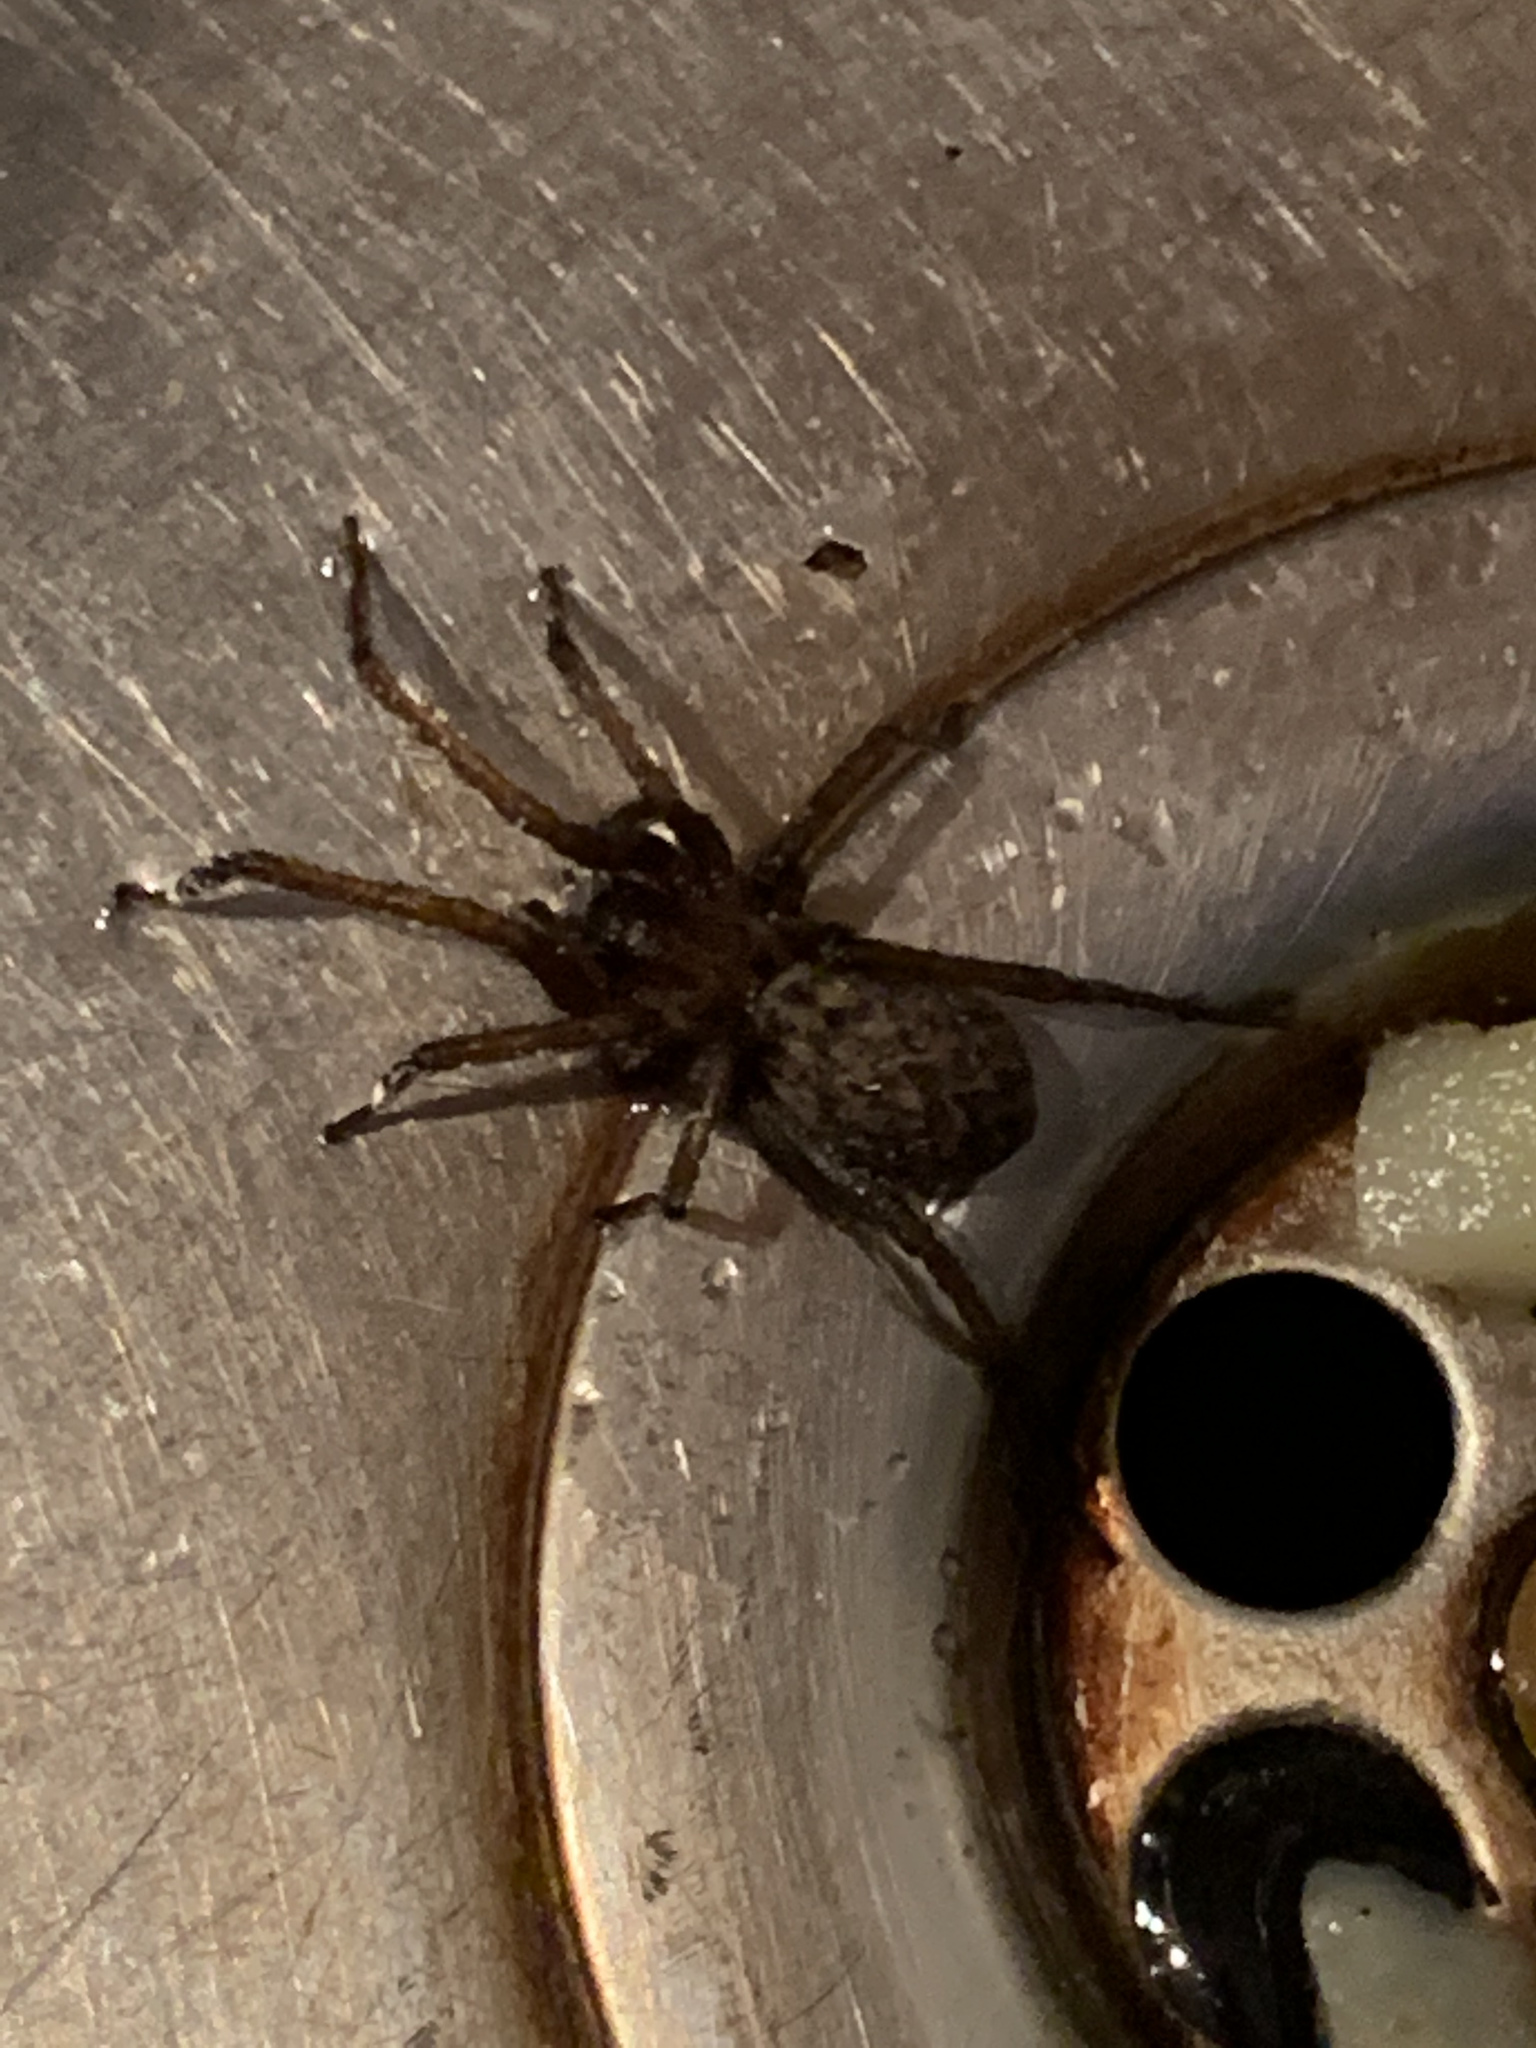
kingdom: Animalia
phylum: Arthropoda
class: Arachnida
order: Araneae
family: Agelenidae
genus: Eratigena
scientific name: Eratigena atrica
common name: Giant house spider
